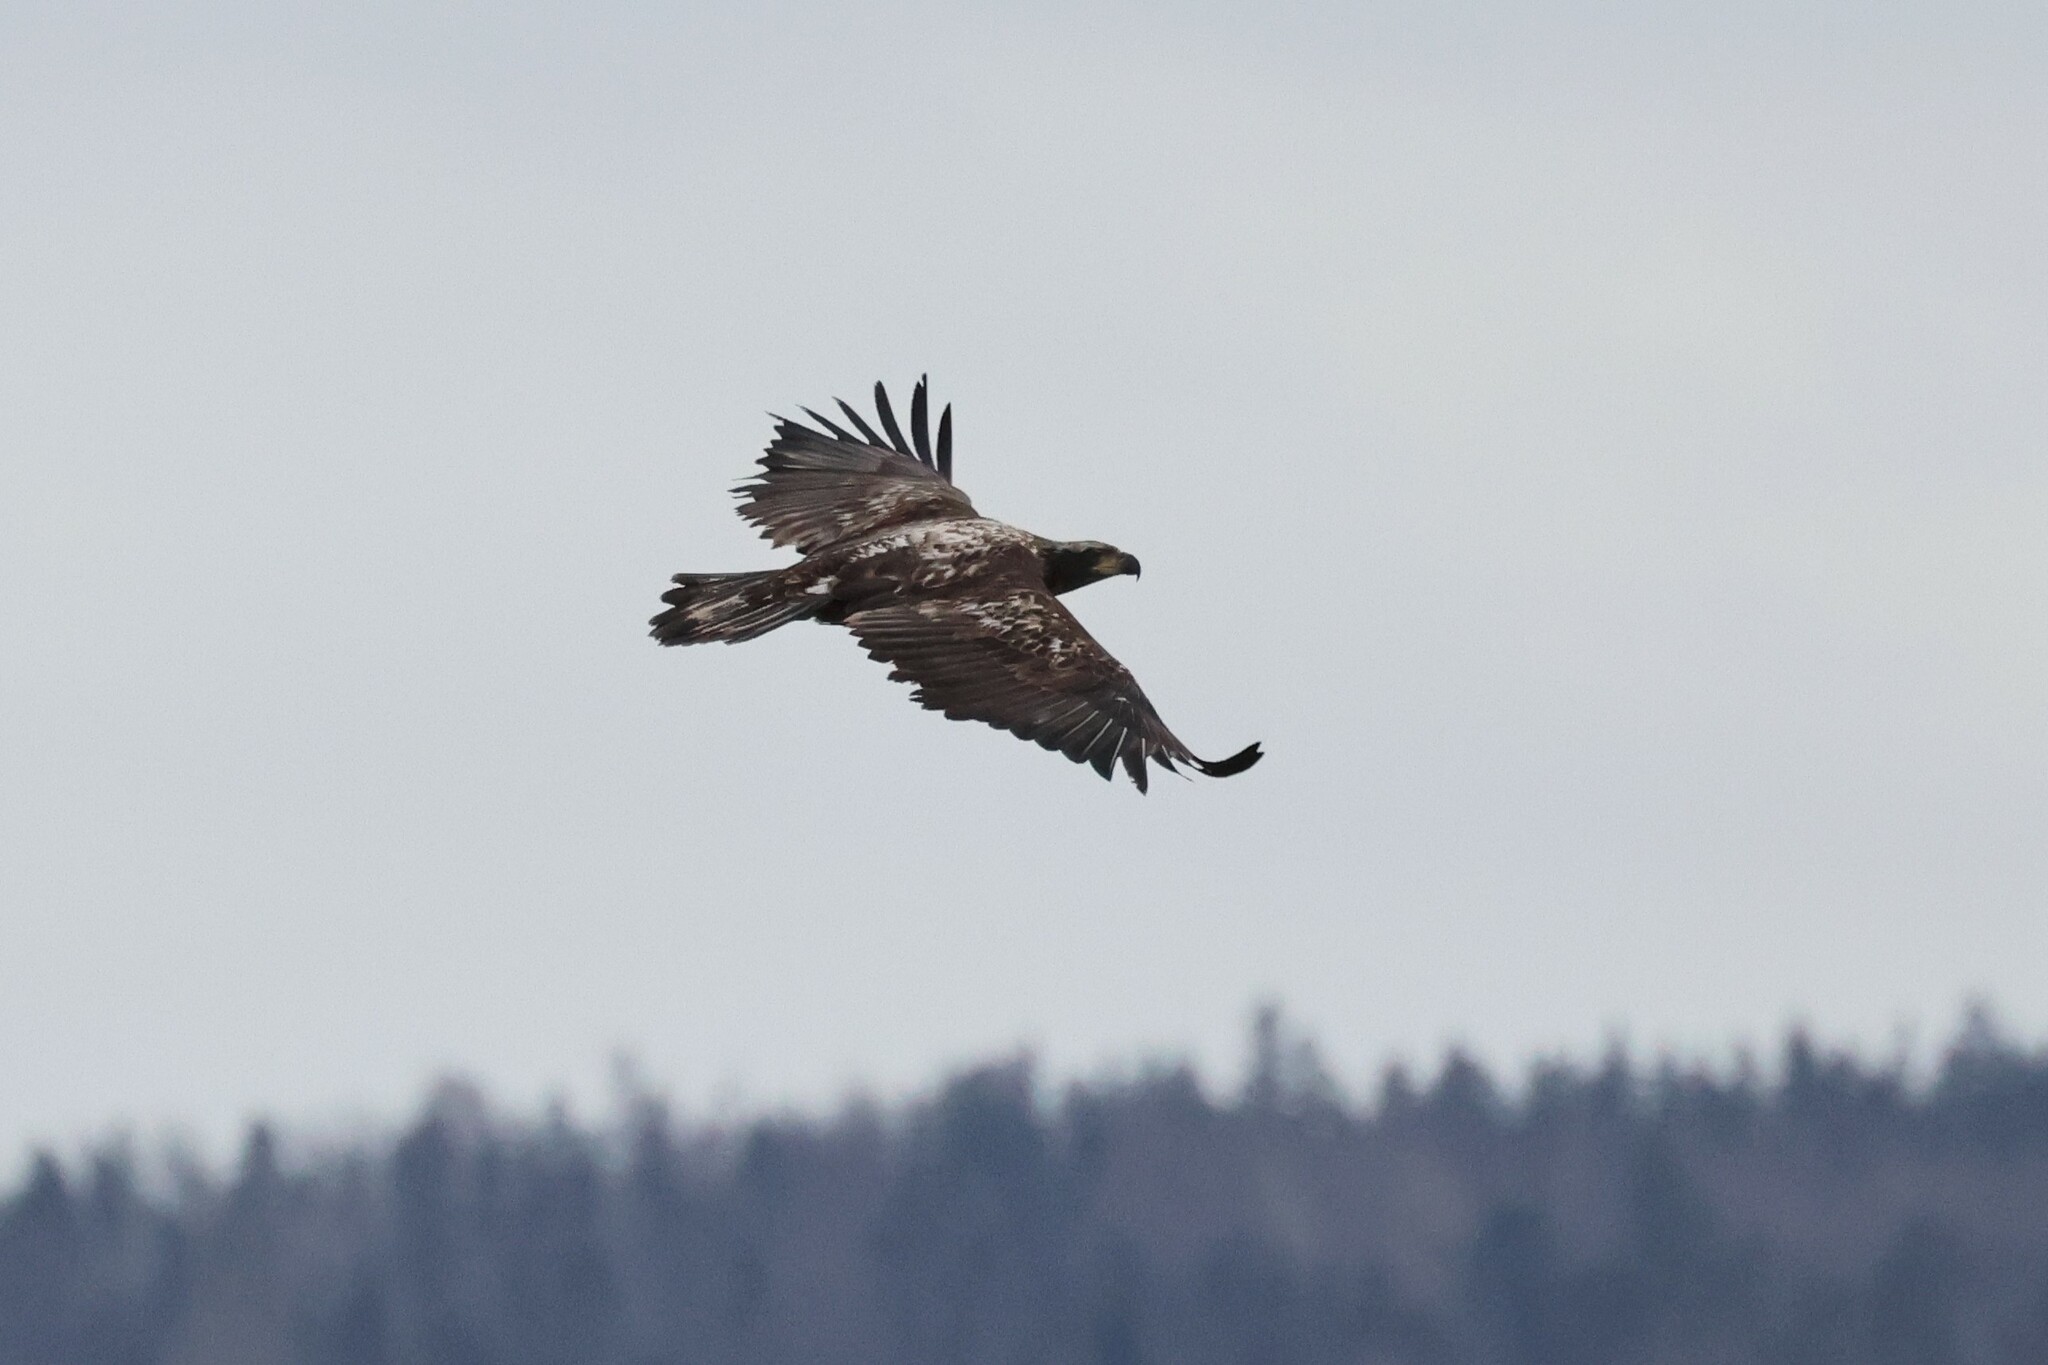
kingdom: Animalia
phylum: Chordata
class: Aves
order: Accipitriformes
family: Accipitridae
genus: Haliaeetus
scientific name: Haliaeetus leucocephalus
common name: Bald eagle
